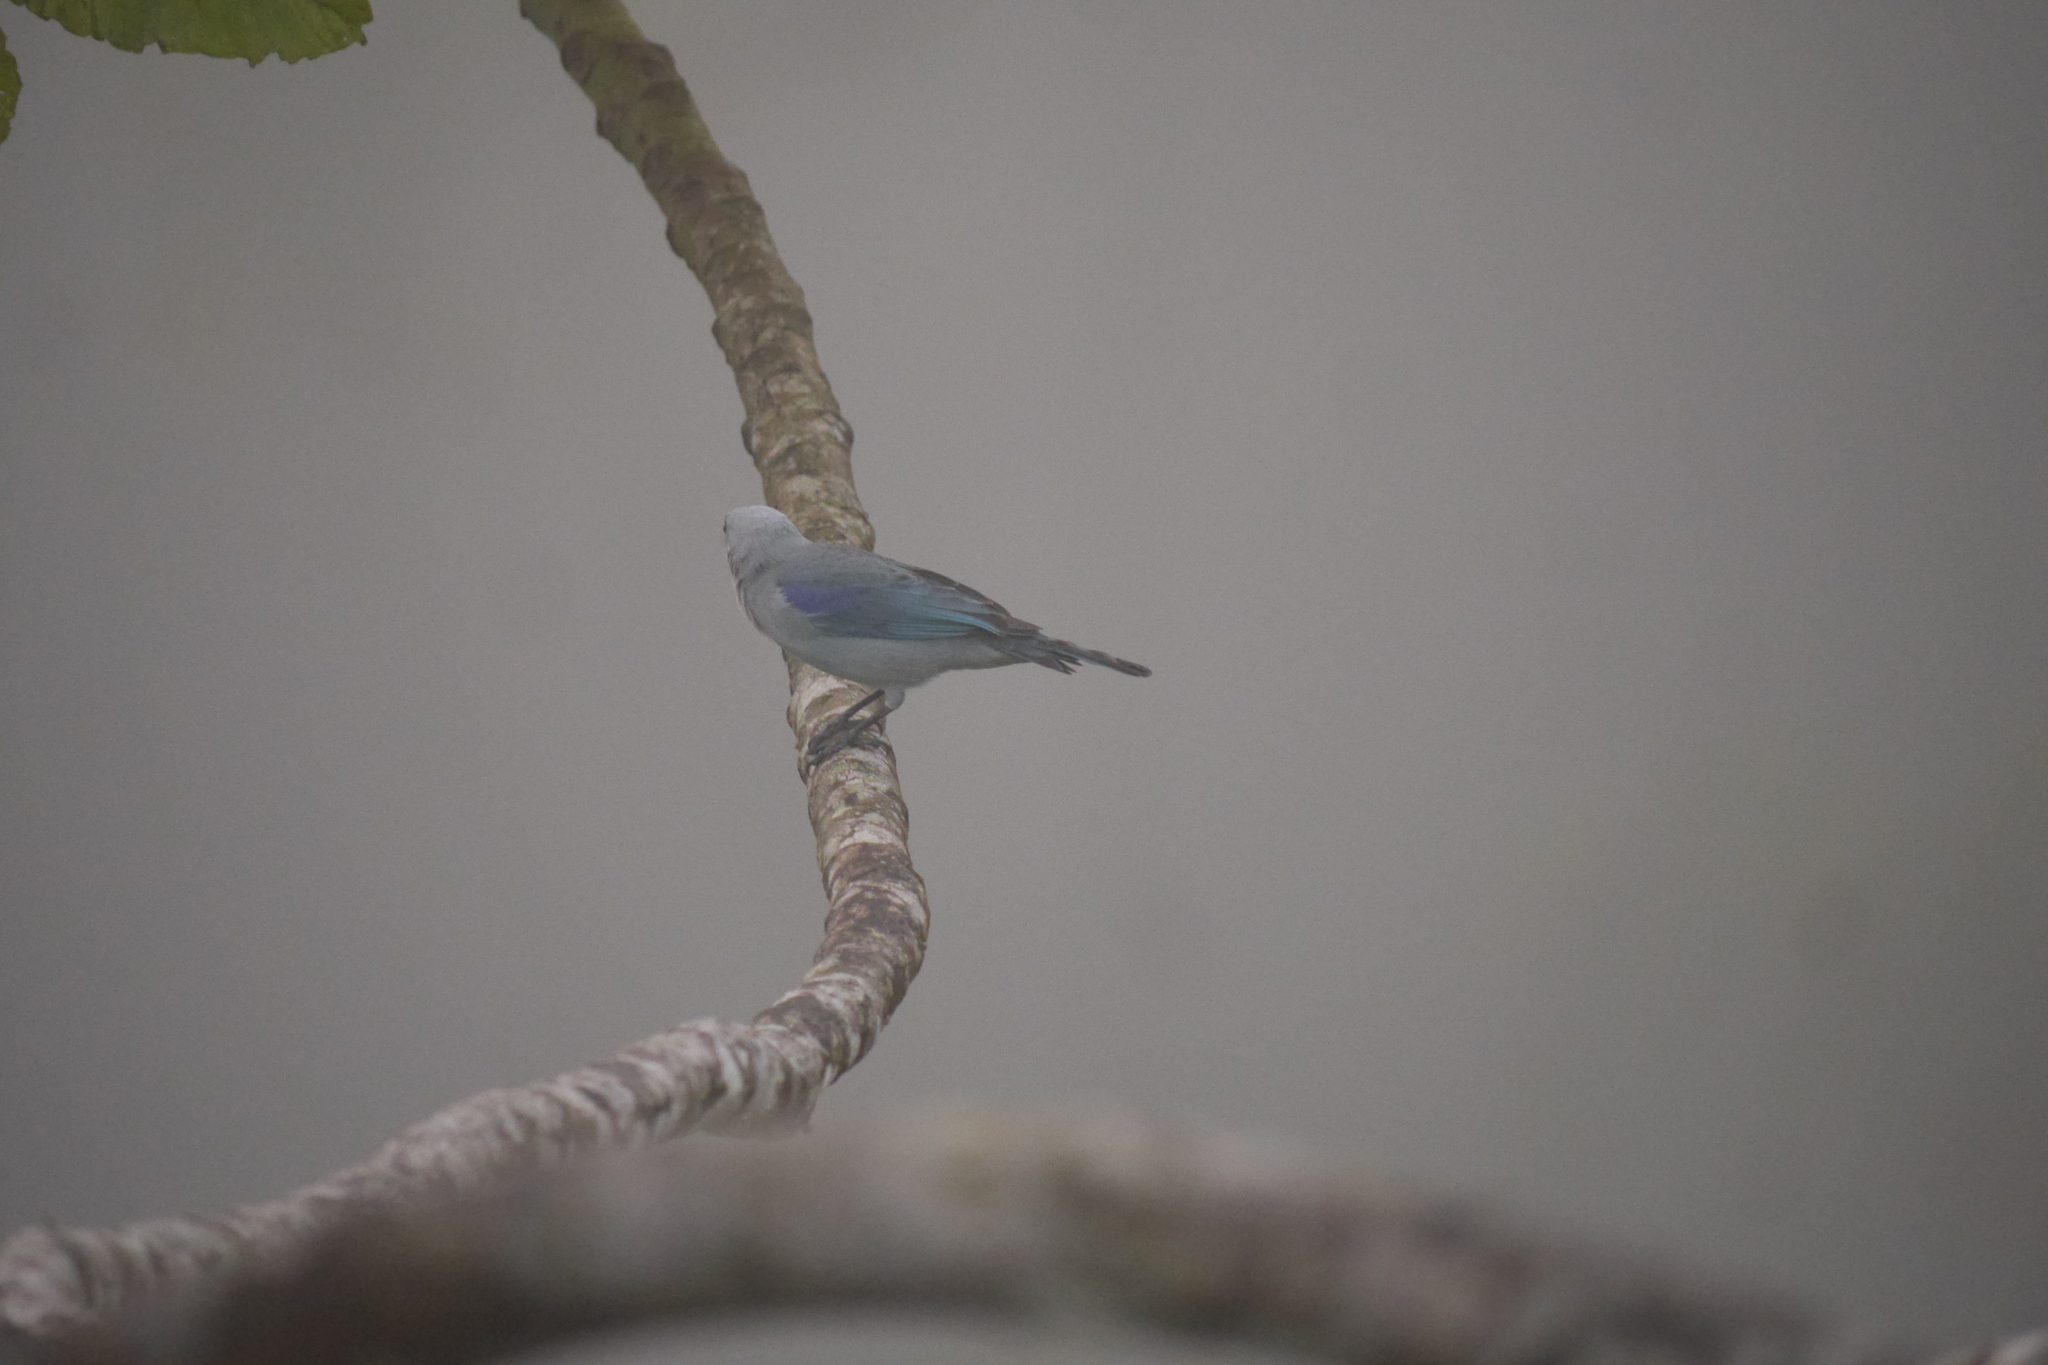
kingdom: Animalia
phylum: Chordata
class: Aves
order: Passeriformes
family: Thraupidae
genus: Thraupis
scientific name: Thraupis episcopus
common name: Blue-grey tanager
